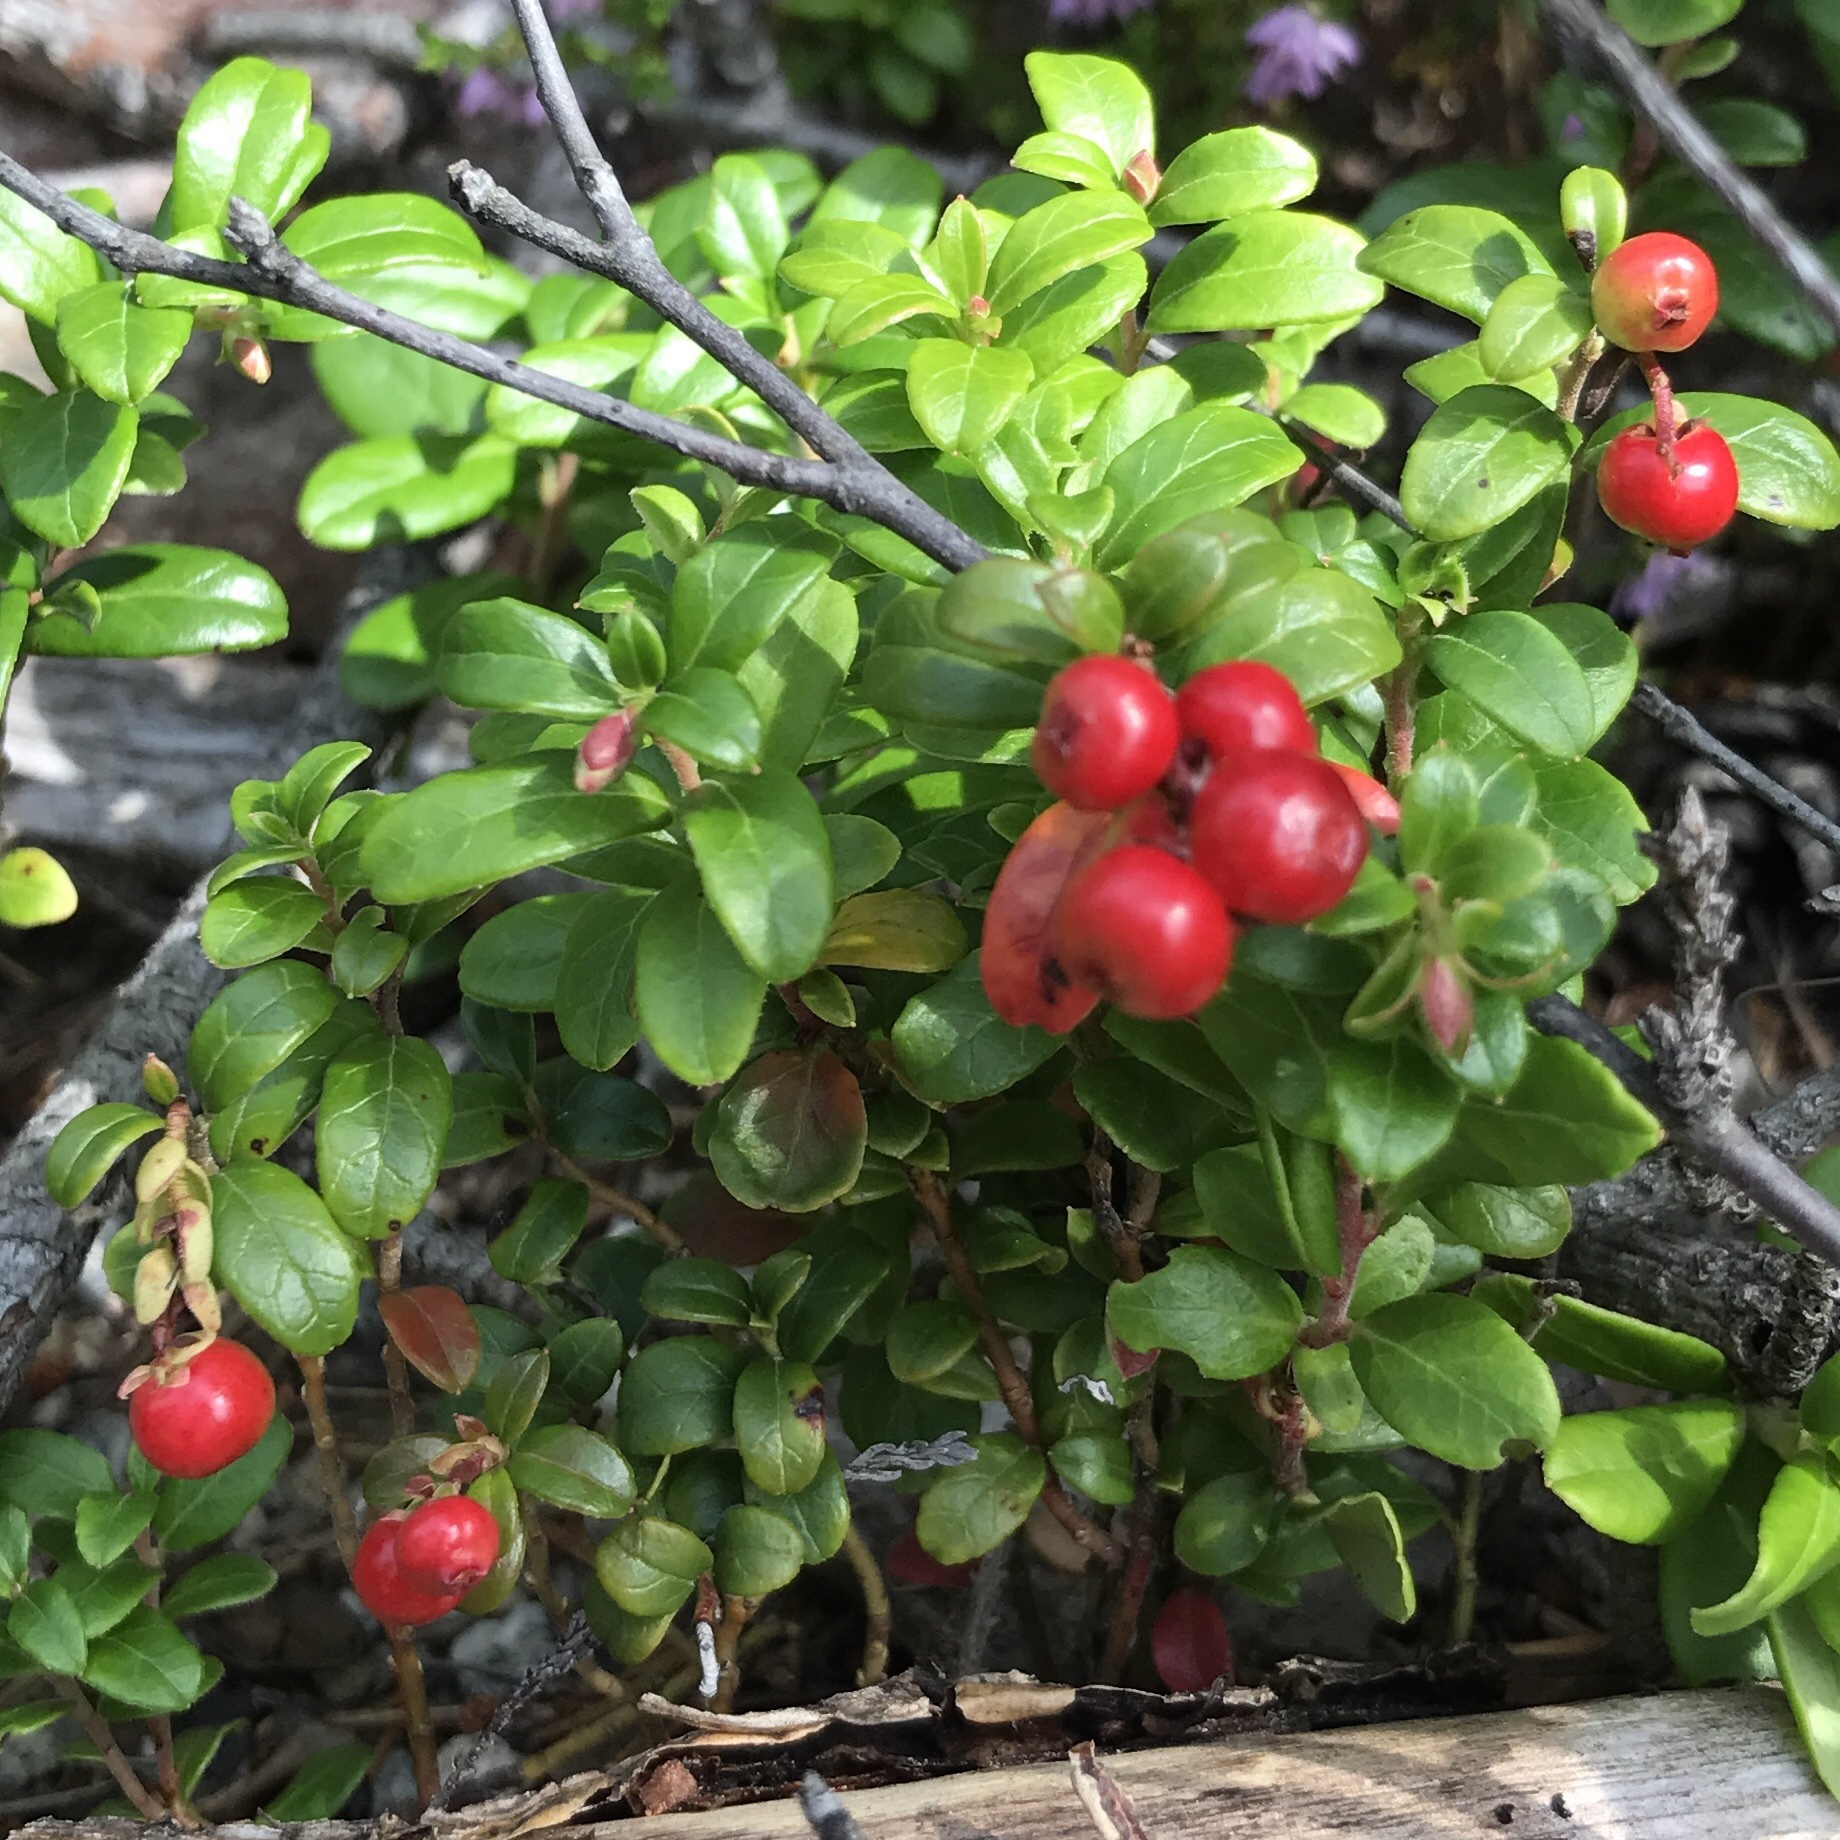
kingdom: Plantae
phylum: Tracheophyta
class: Magnoliopsida
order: Ericales
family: Ericaceae
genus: Vaccinium
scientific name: Vaccinium vitis-idaea
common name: Cowberry
